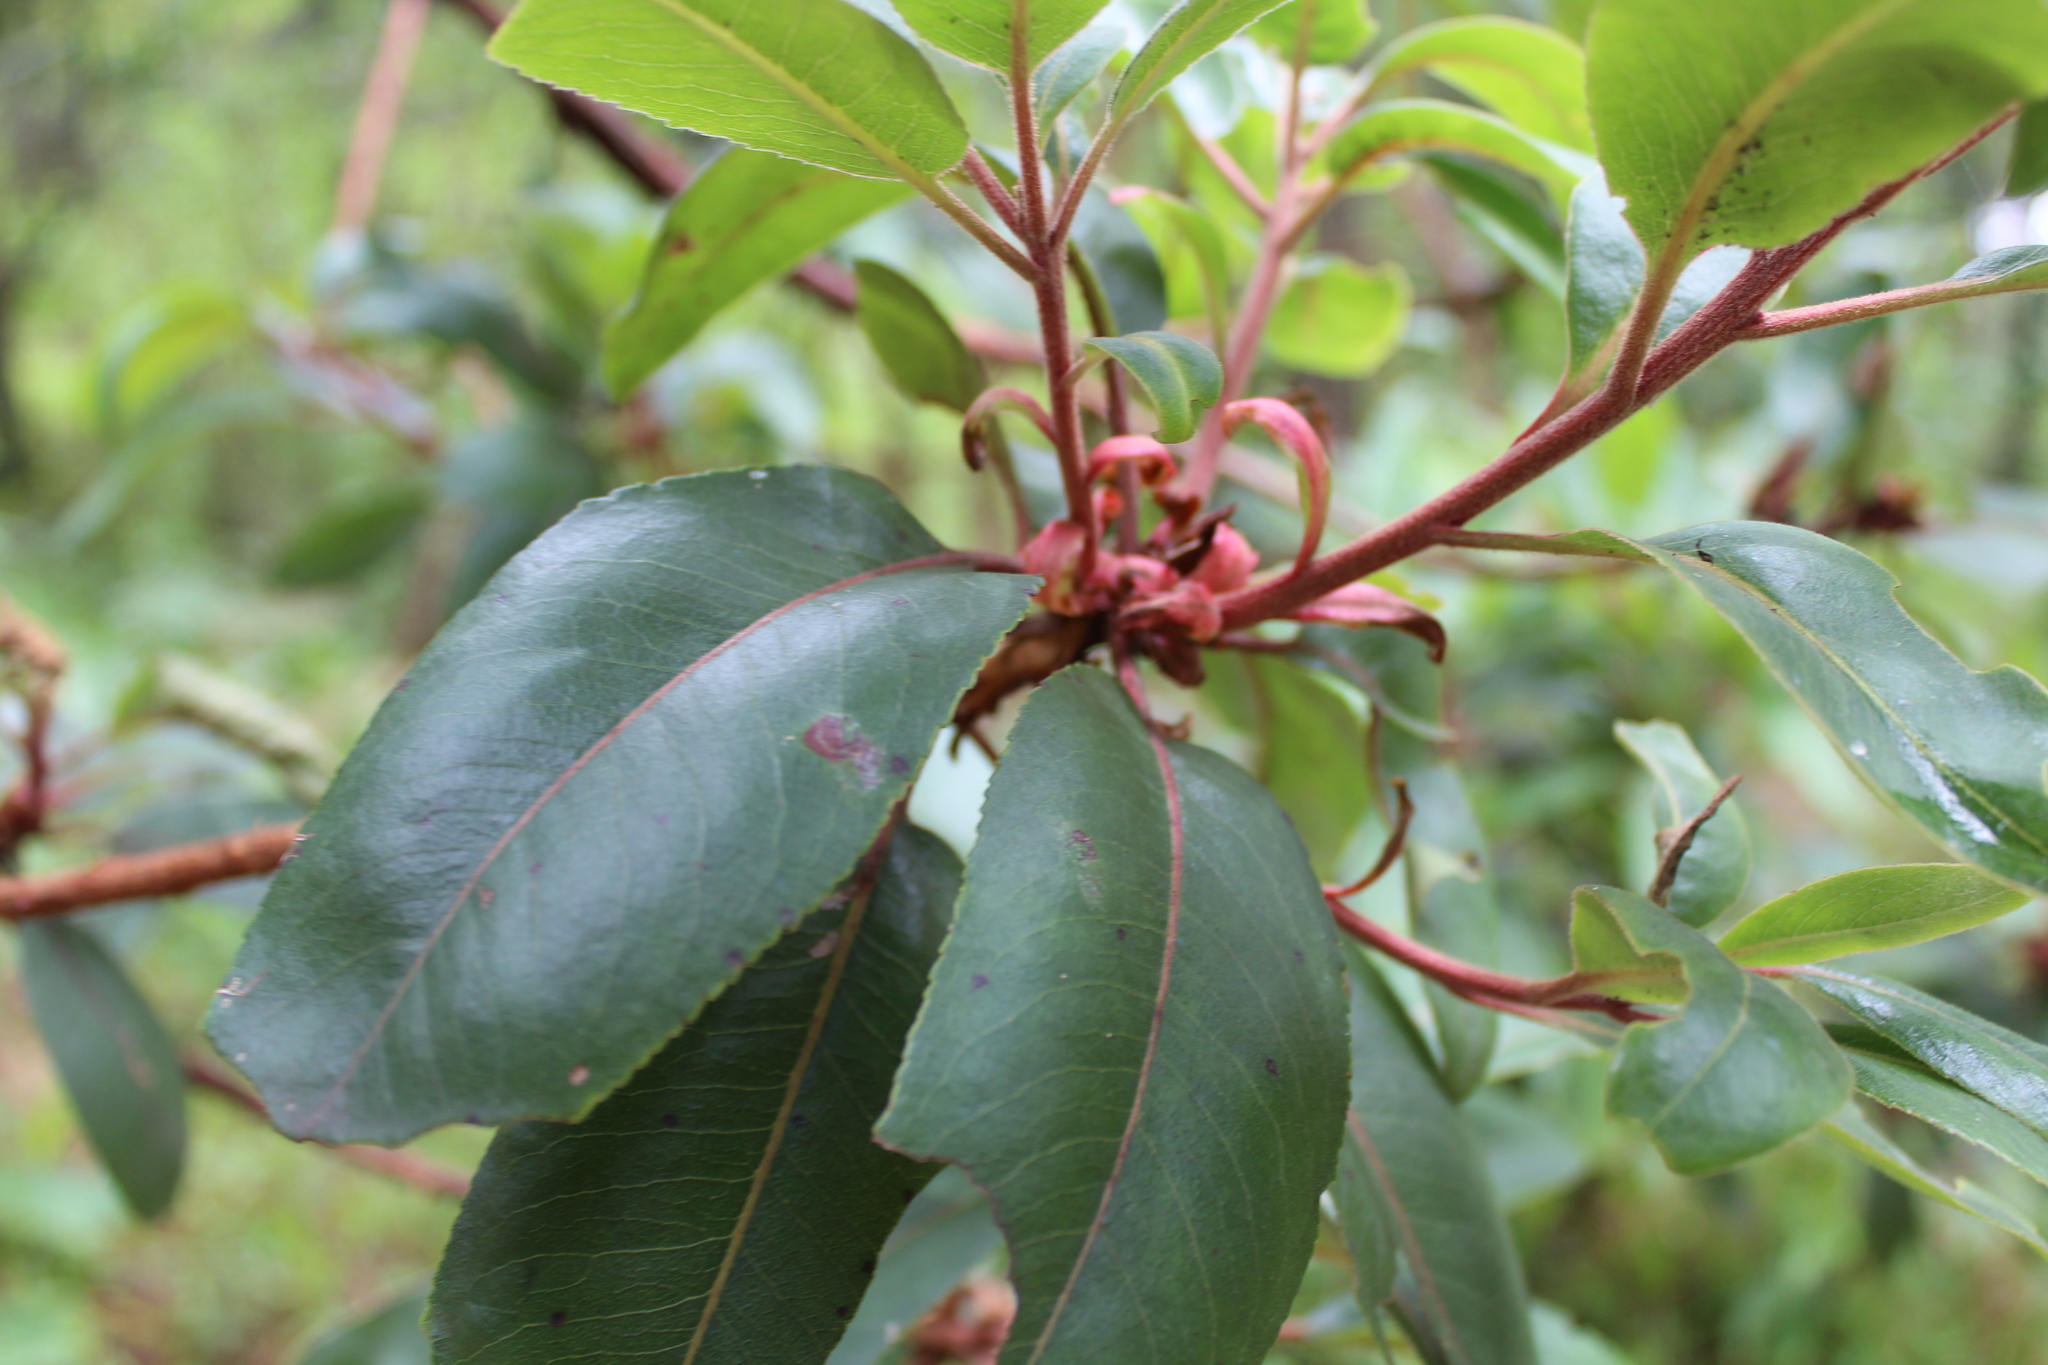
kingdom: Plantae
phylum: Tracheophyta
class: Magnoliopsida
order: Ericales
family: Ericaceae
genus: Arbutus
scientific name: Arbutus xalapensis
